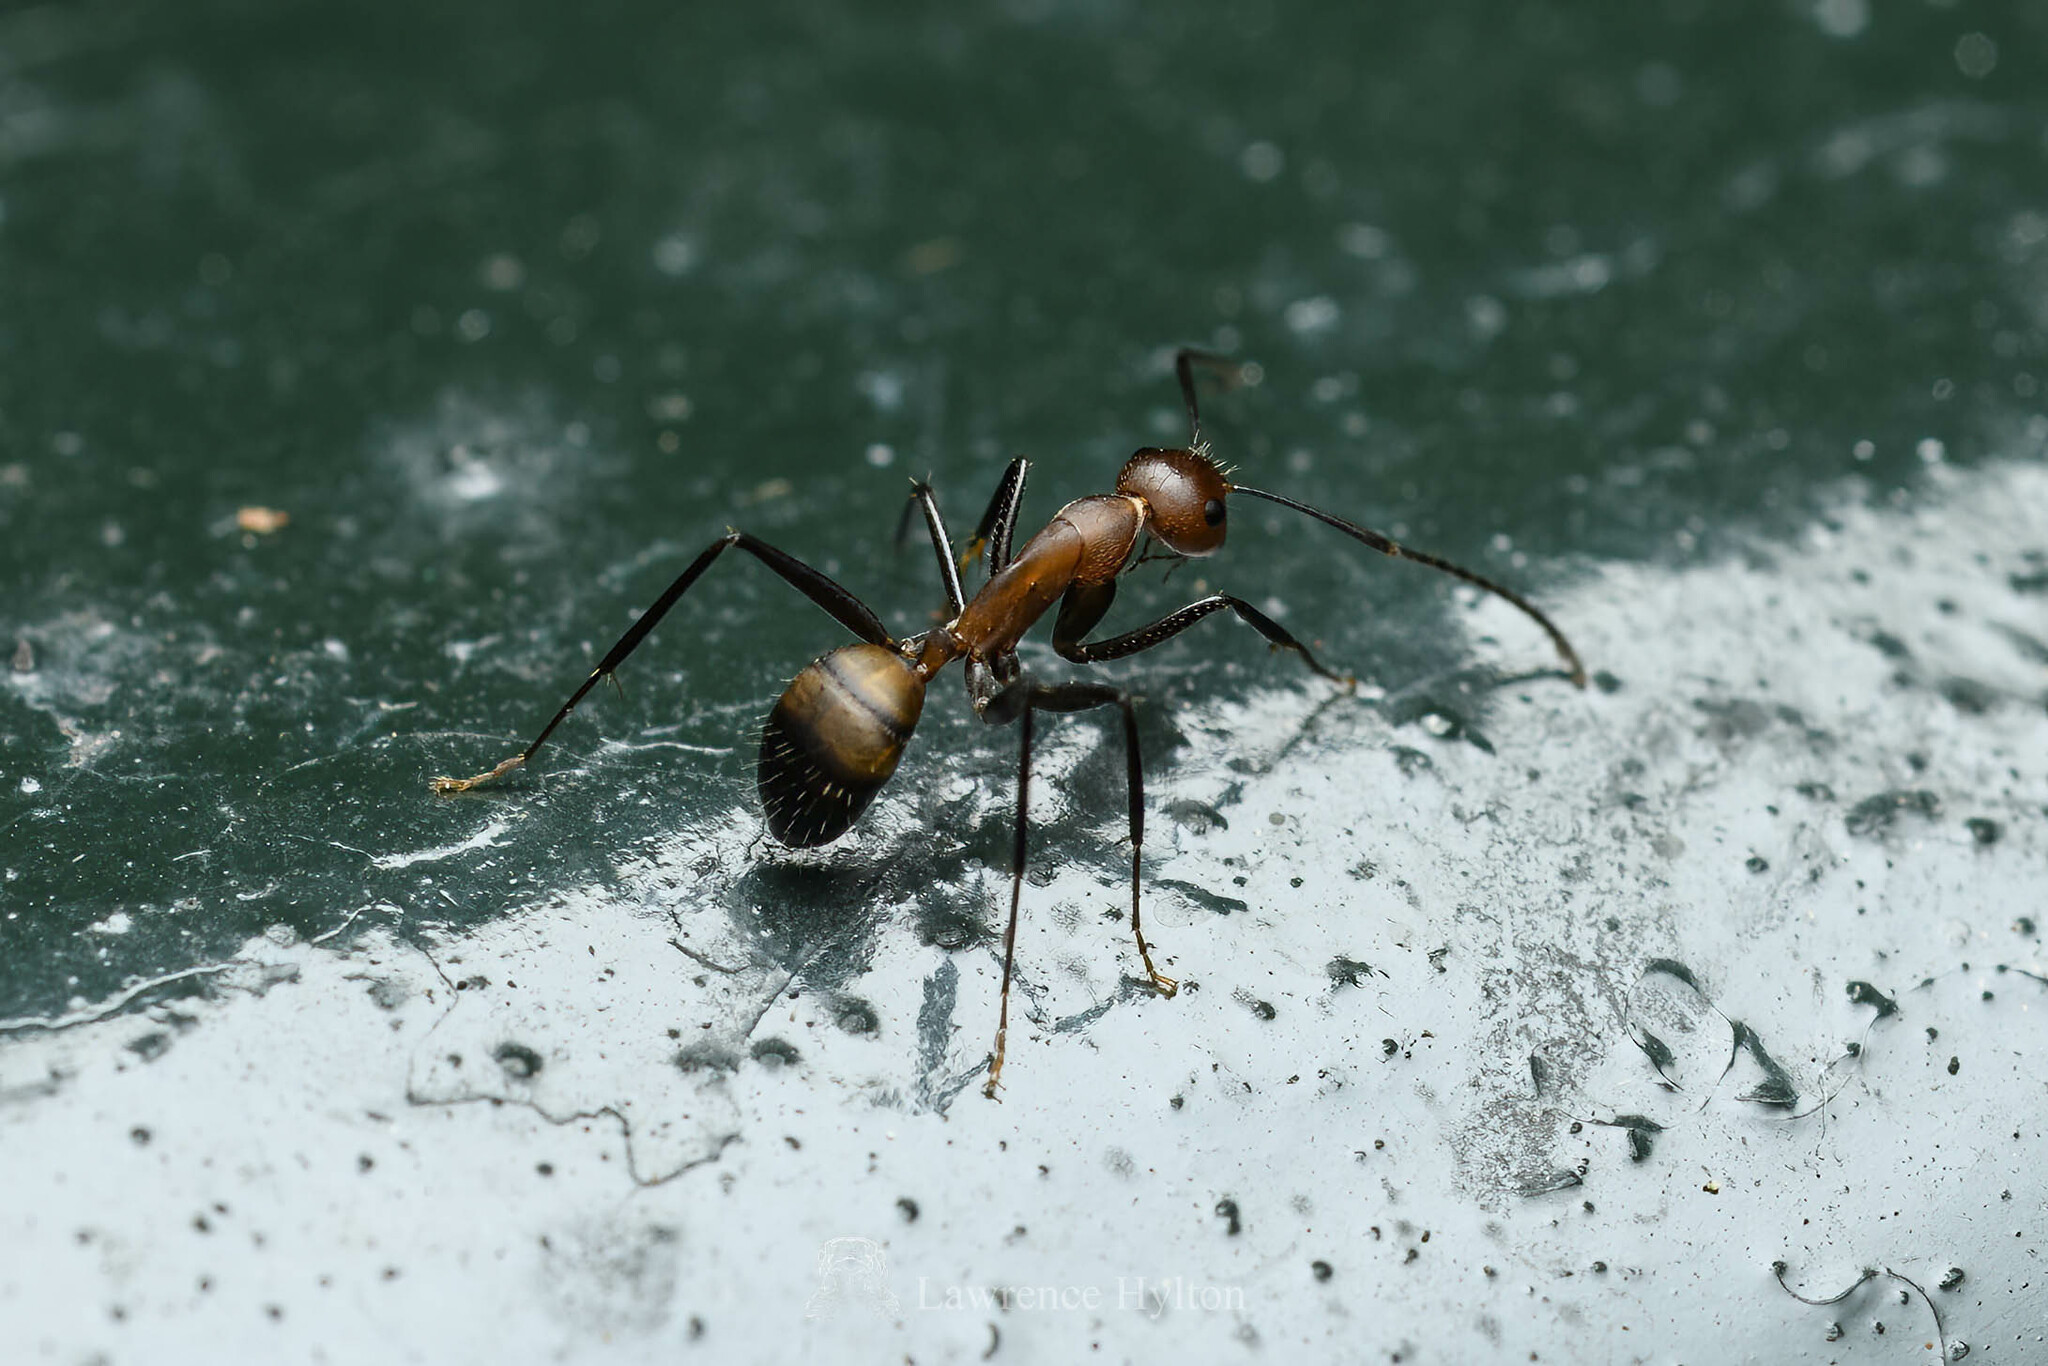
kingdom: Animalia
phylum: Arthropoda
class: Insecta
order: Hymenoptera
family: Formicidae
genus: Camponotus
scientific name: Camponotus nicobarensis
